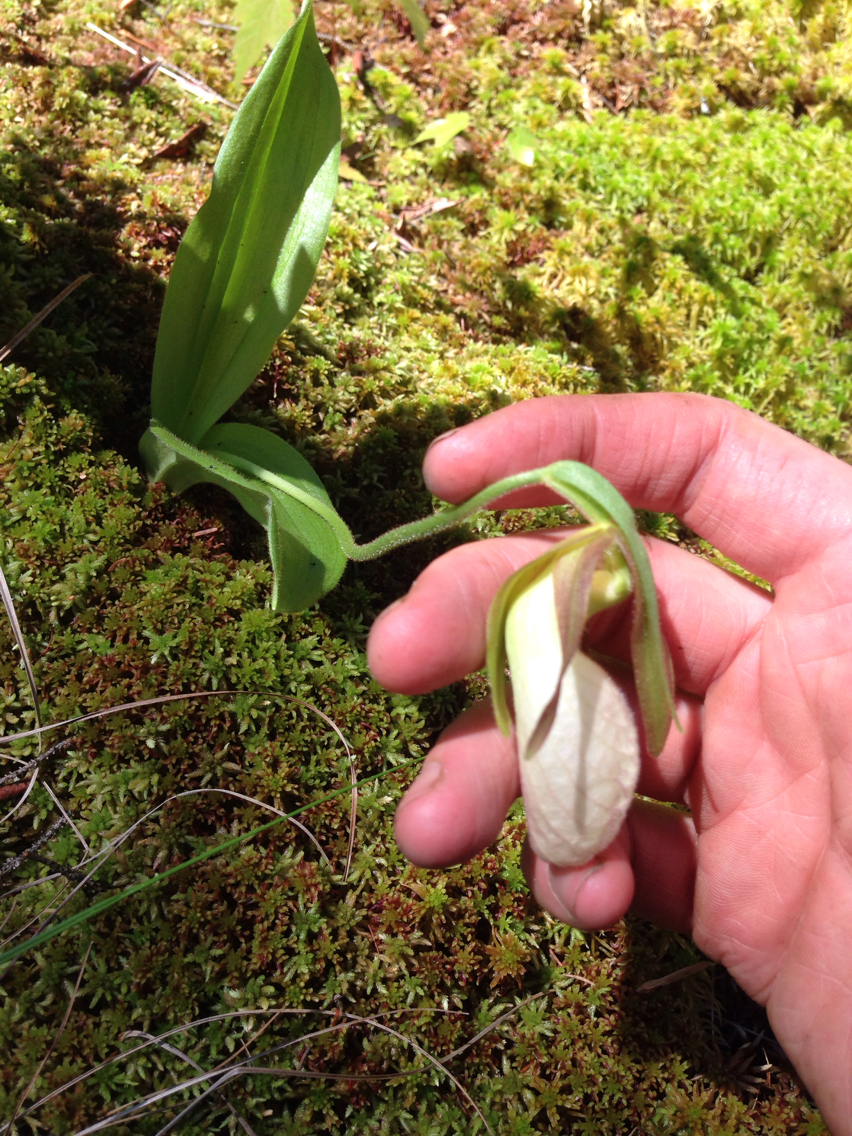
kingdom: Plantae
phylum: Tracheophyta
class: Liliopsida
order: Asparagales
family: Orchidaceae
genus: Cypripedium
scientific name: Cypripedium acaule
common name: Pink lady's-slipper
